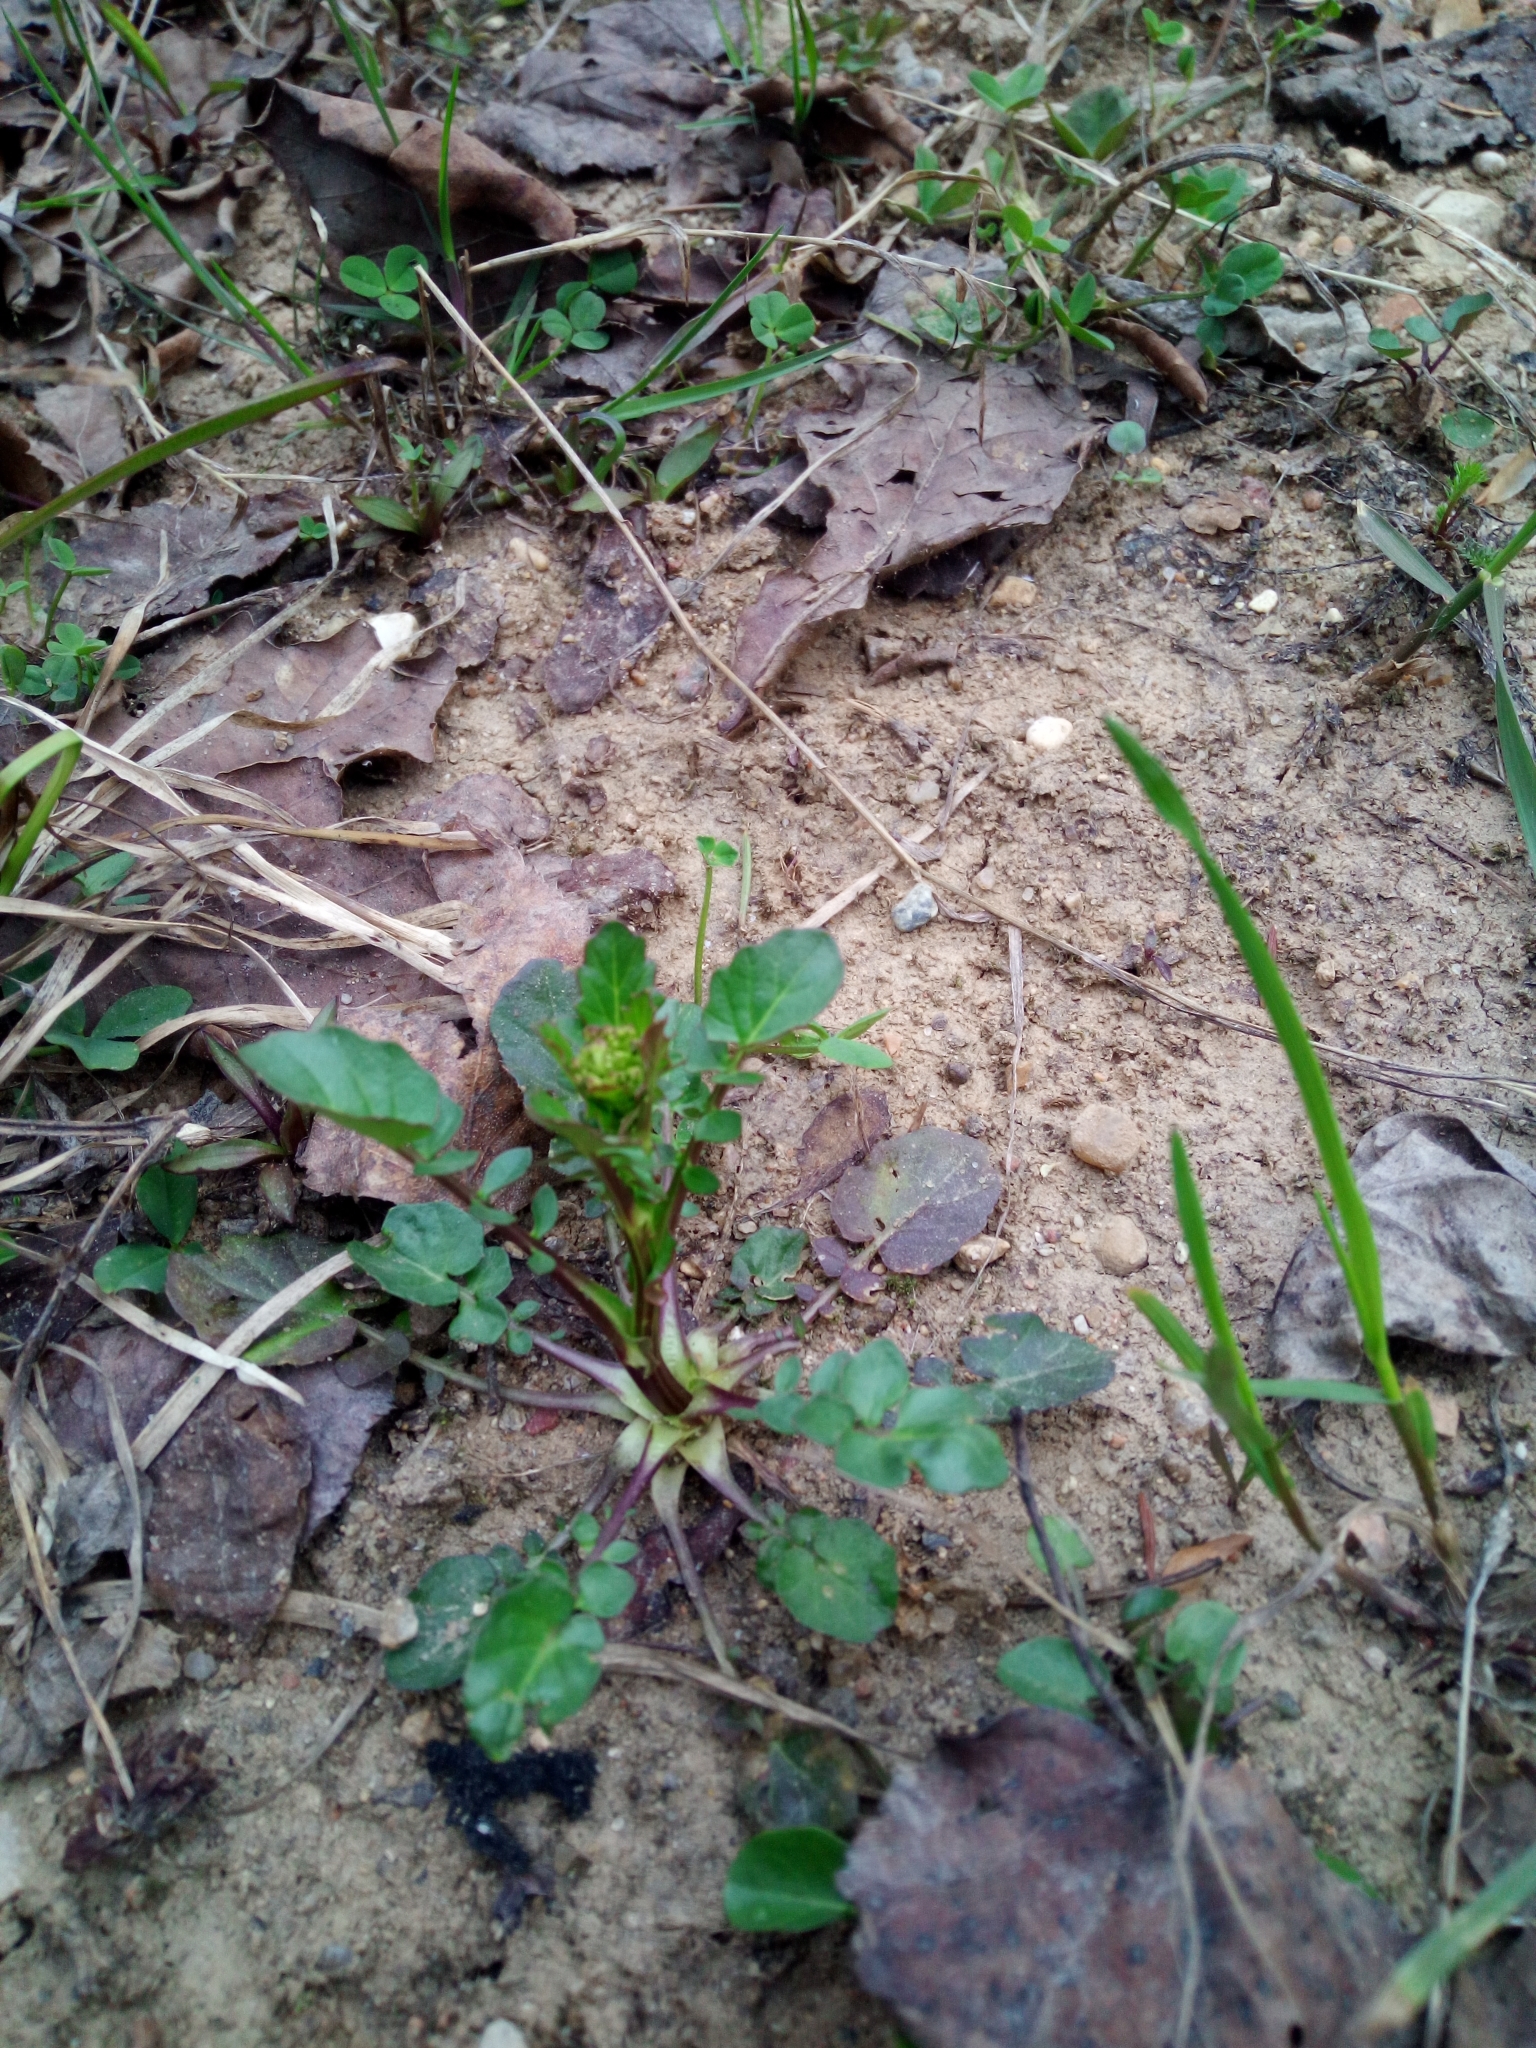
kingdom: Plantae
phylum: Tracheophyta
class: Magnoliopsida
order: Brassicales
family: Brassicaceae
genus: Barbarea
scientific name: Barbarea vulgaris
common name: Cressy-greens
